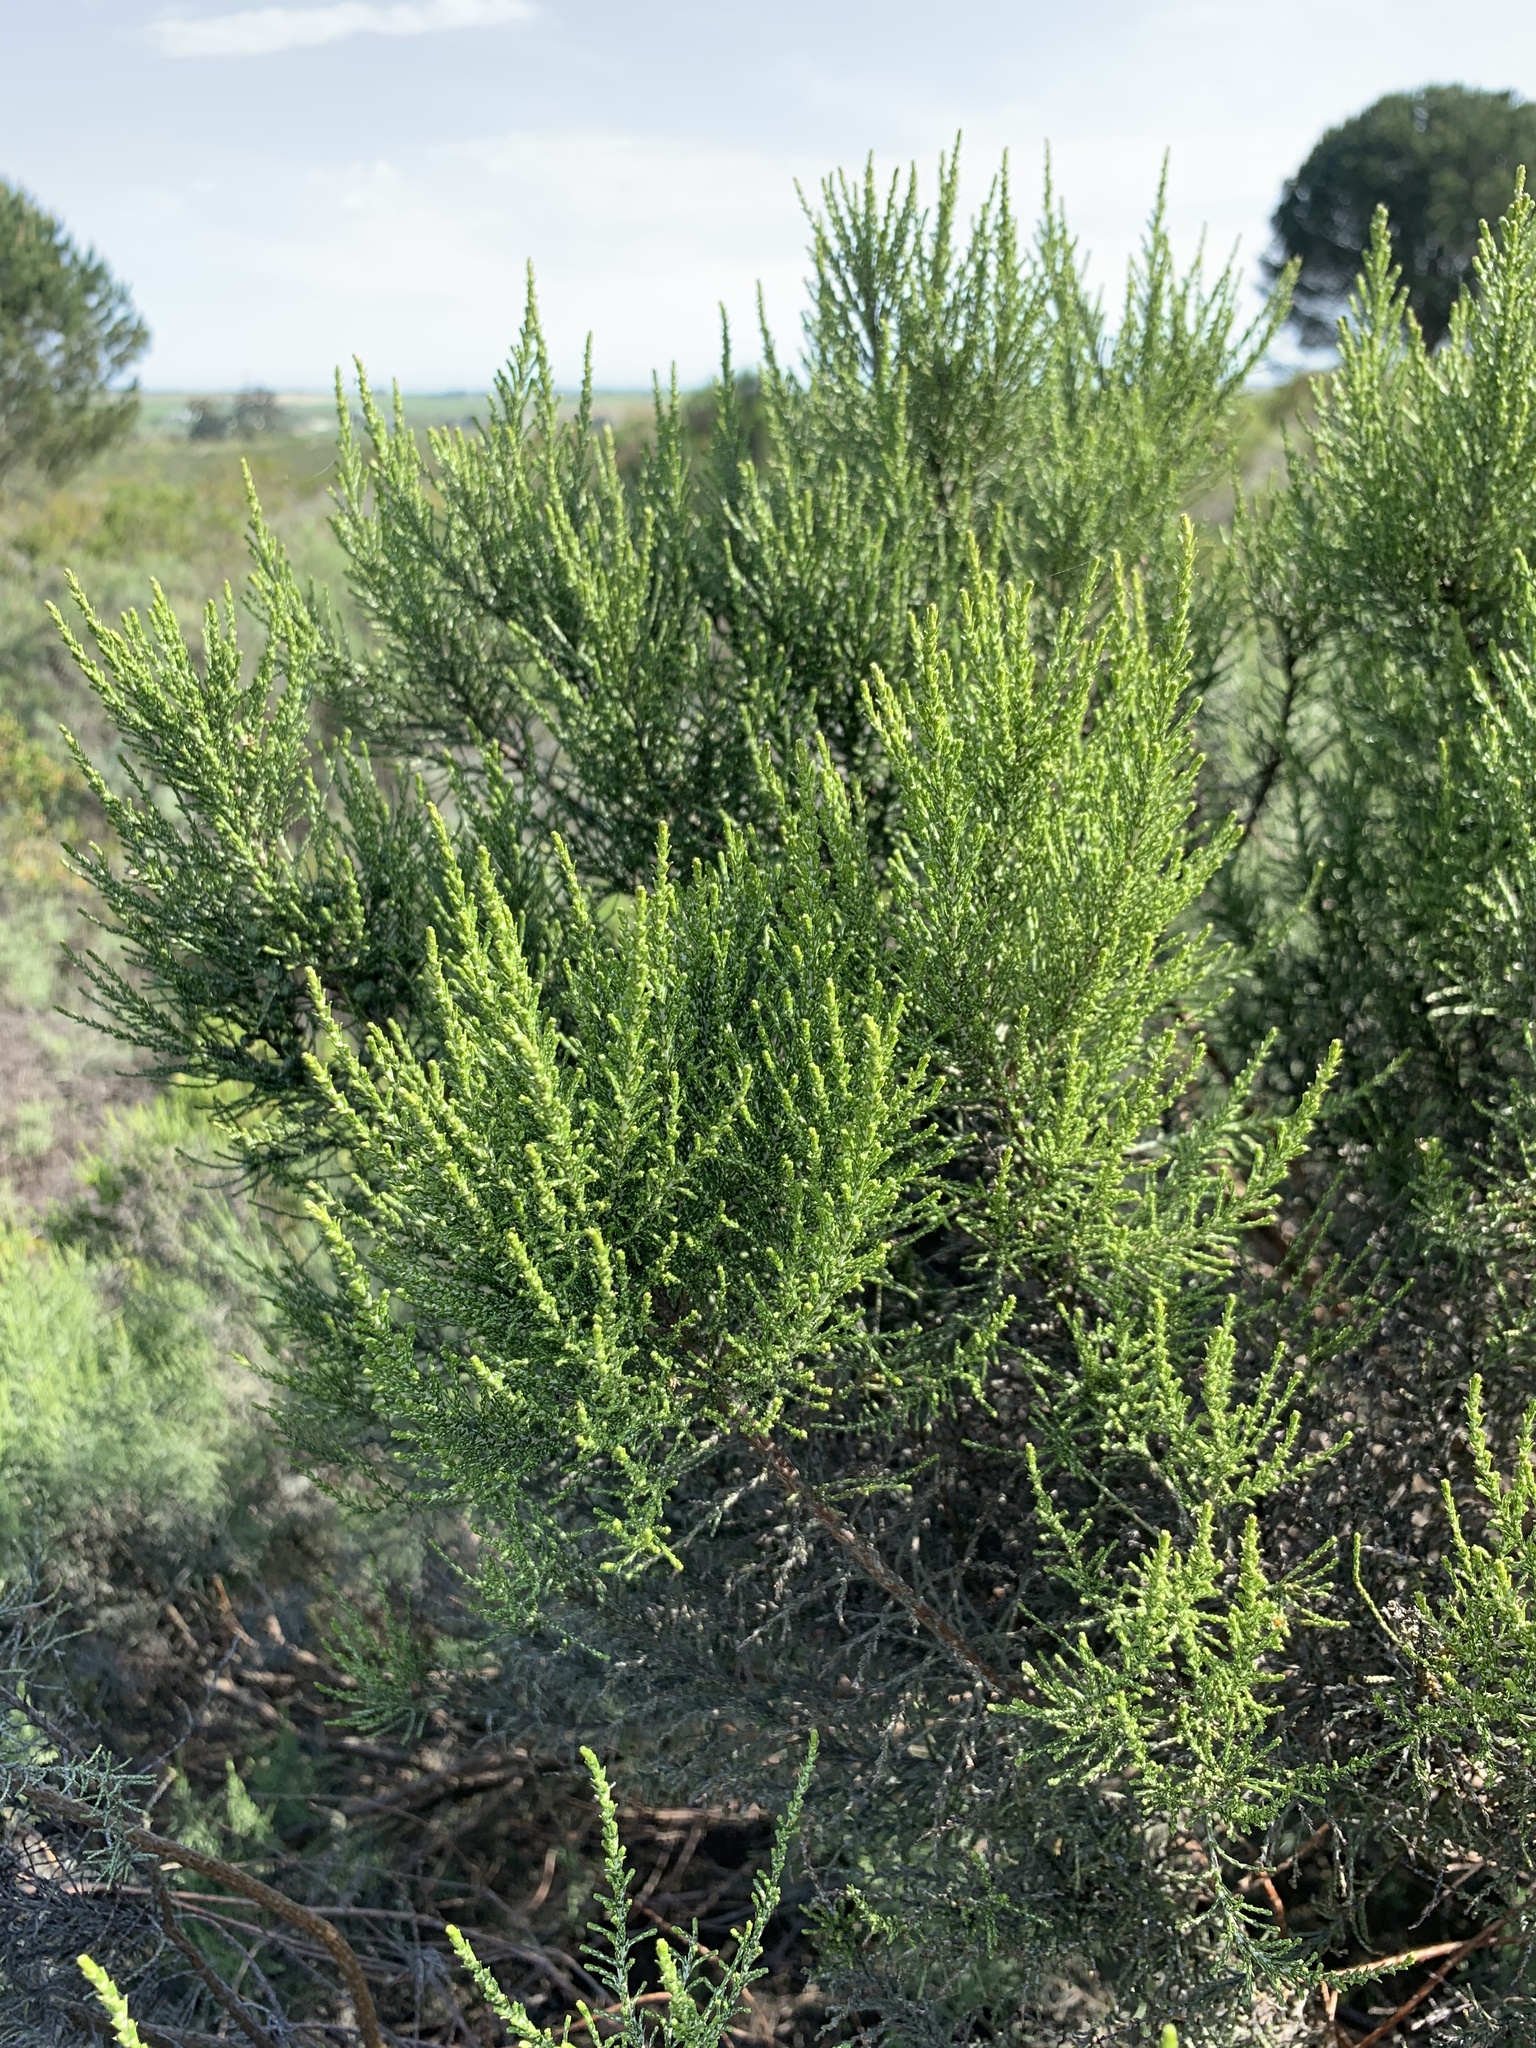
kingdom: Plantae
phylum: Tracheophyta
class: Magnoliopsida
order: Asterales
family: Asteraceae
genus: Dicerothamnus
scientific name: Dicerothamnus rhinocerotis
